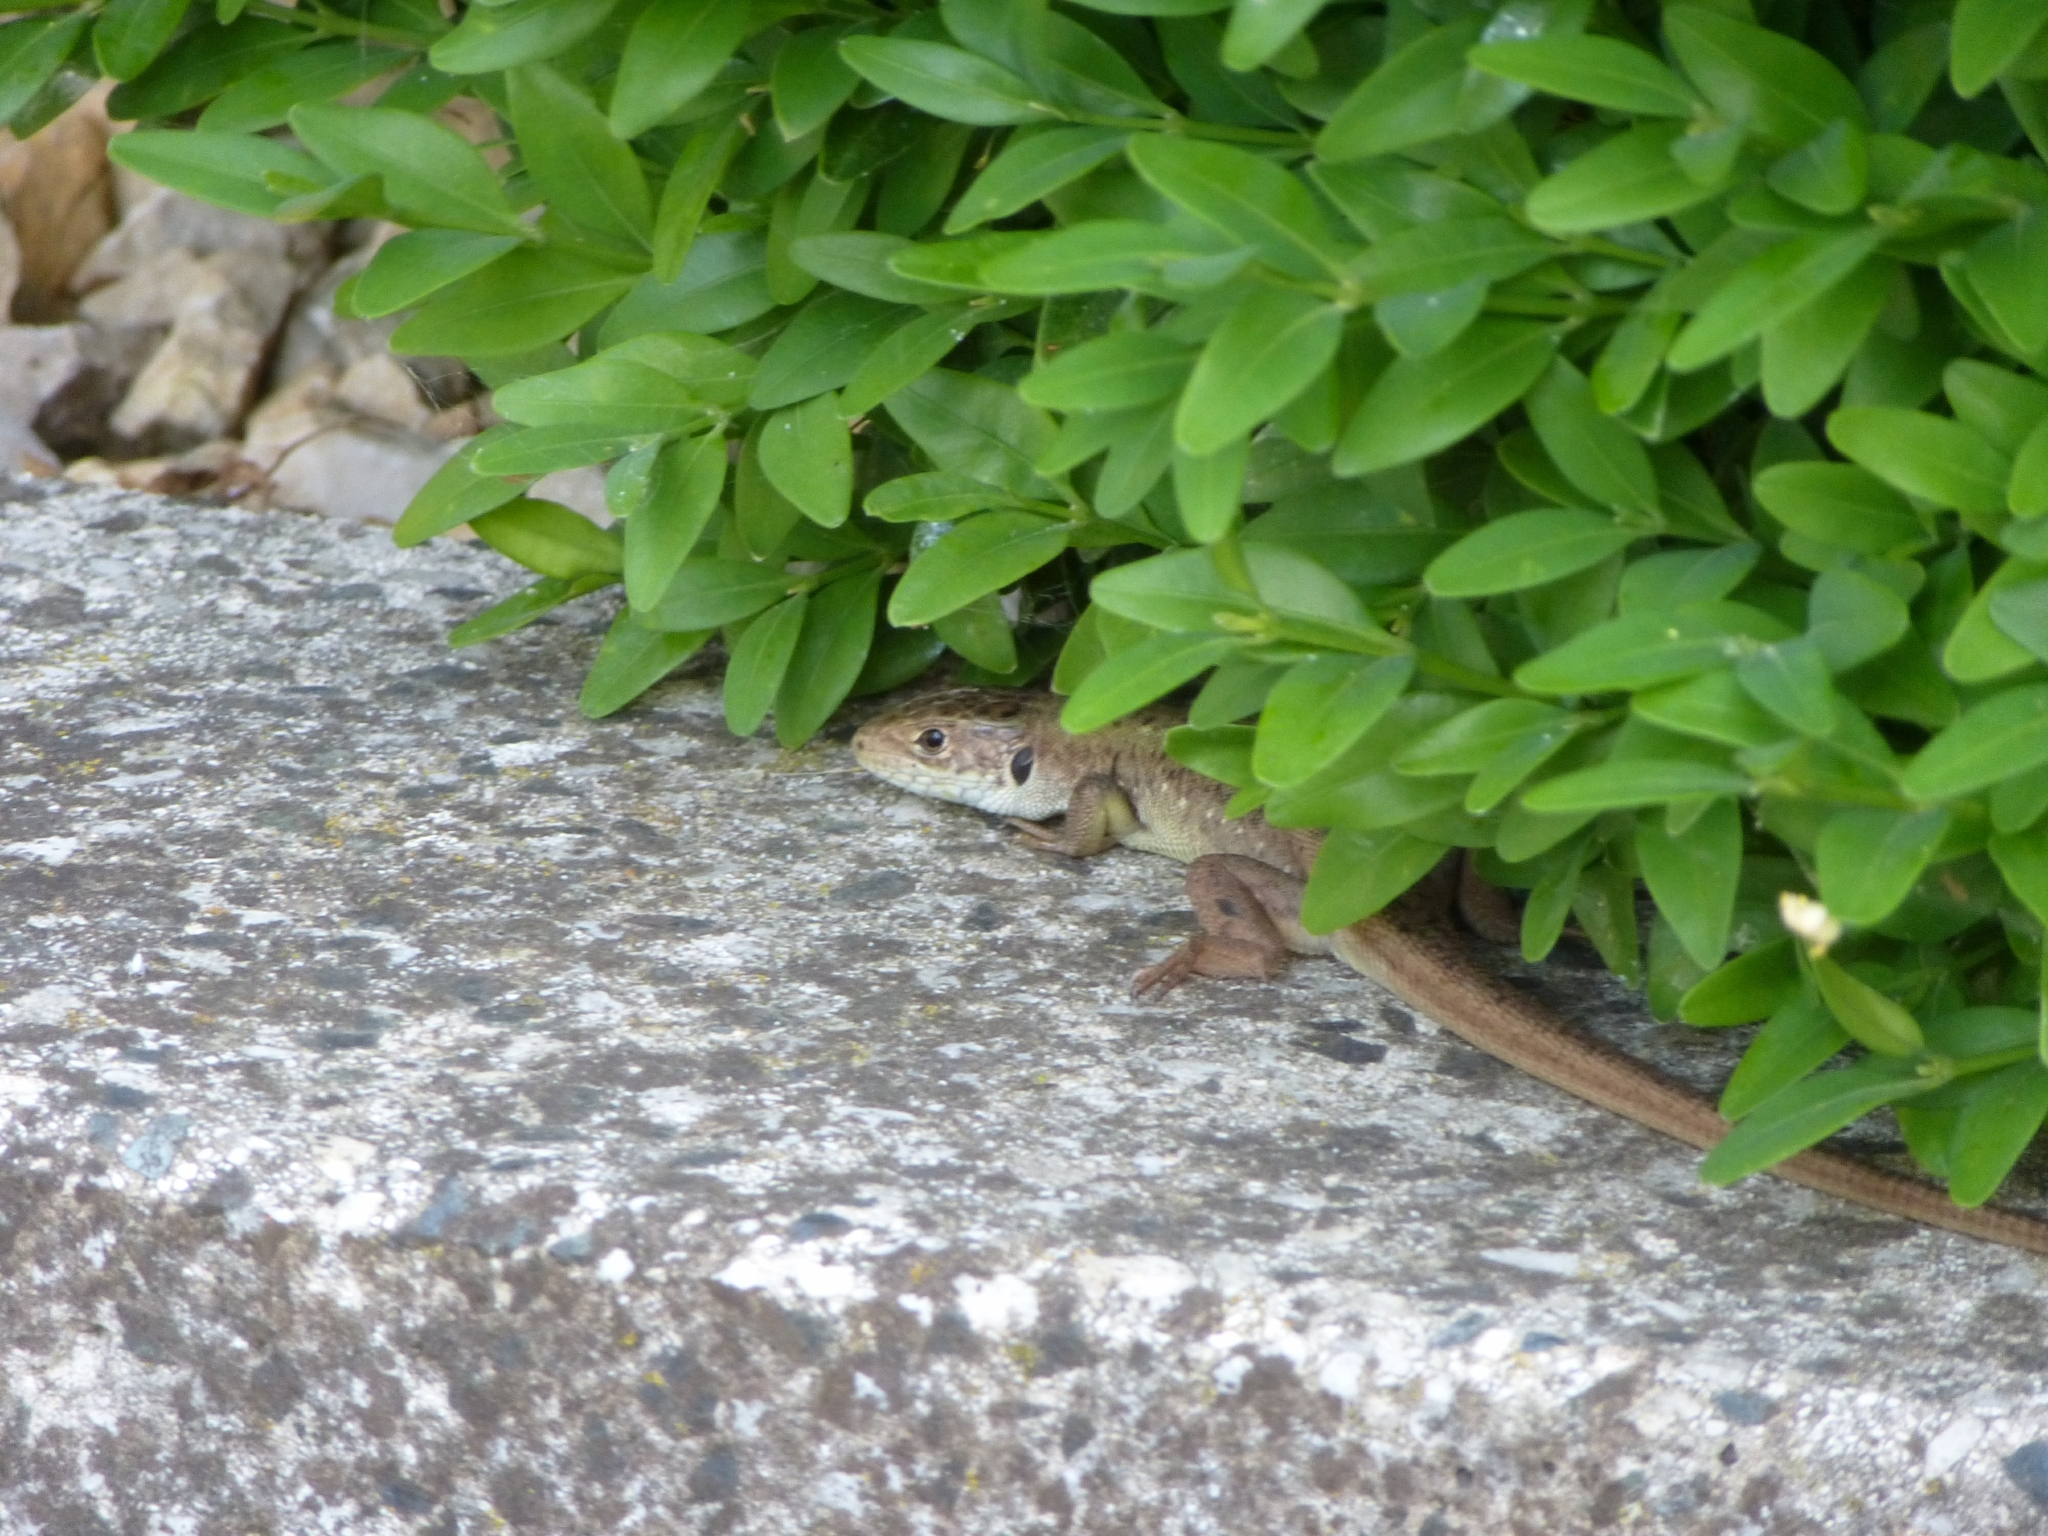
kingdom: Animalia
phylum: Chordata
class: Squamata
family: Lacertidae
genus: Lacerta
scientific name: Lacerta viridis
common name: European green lizard
